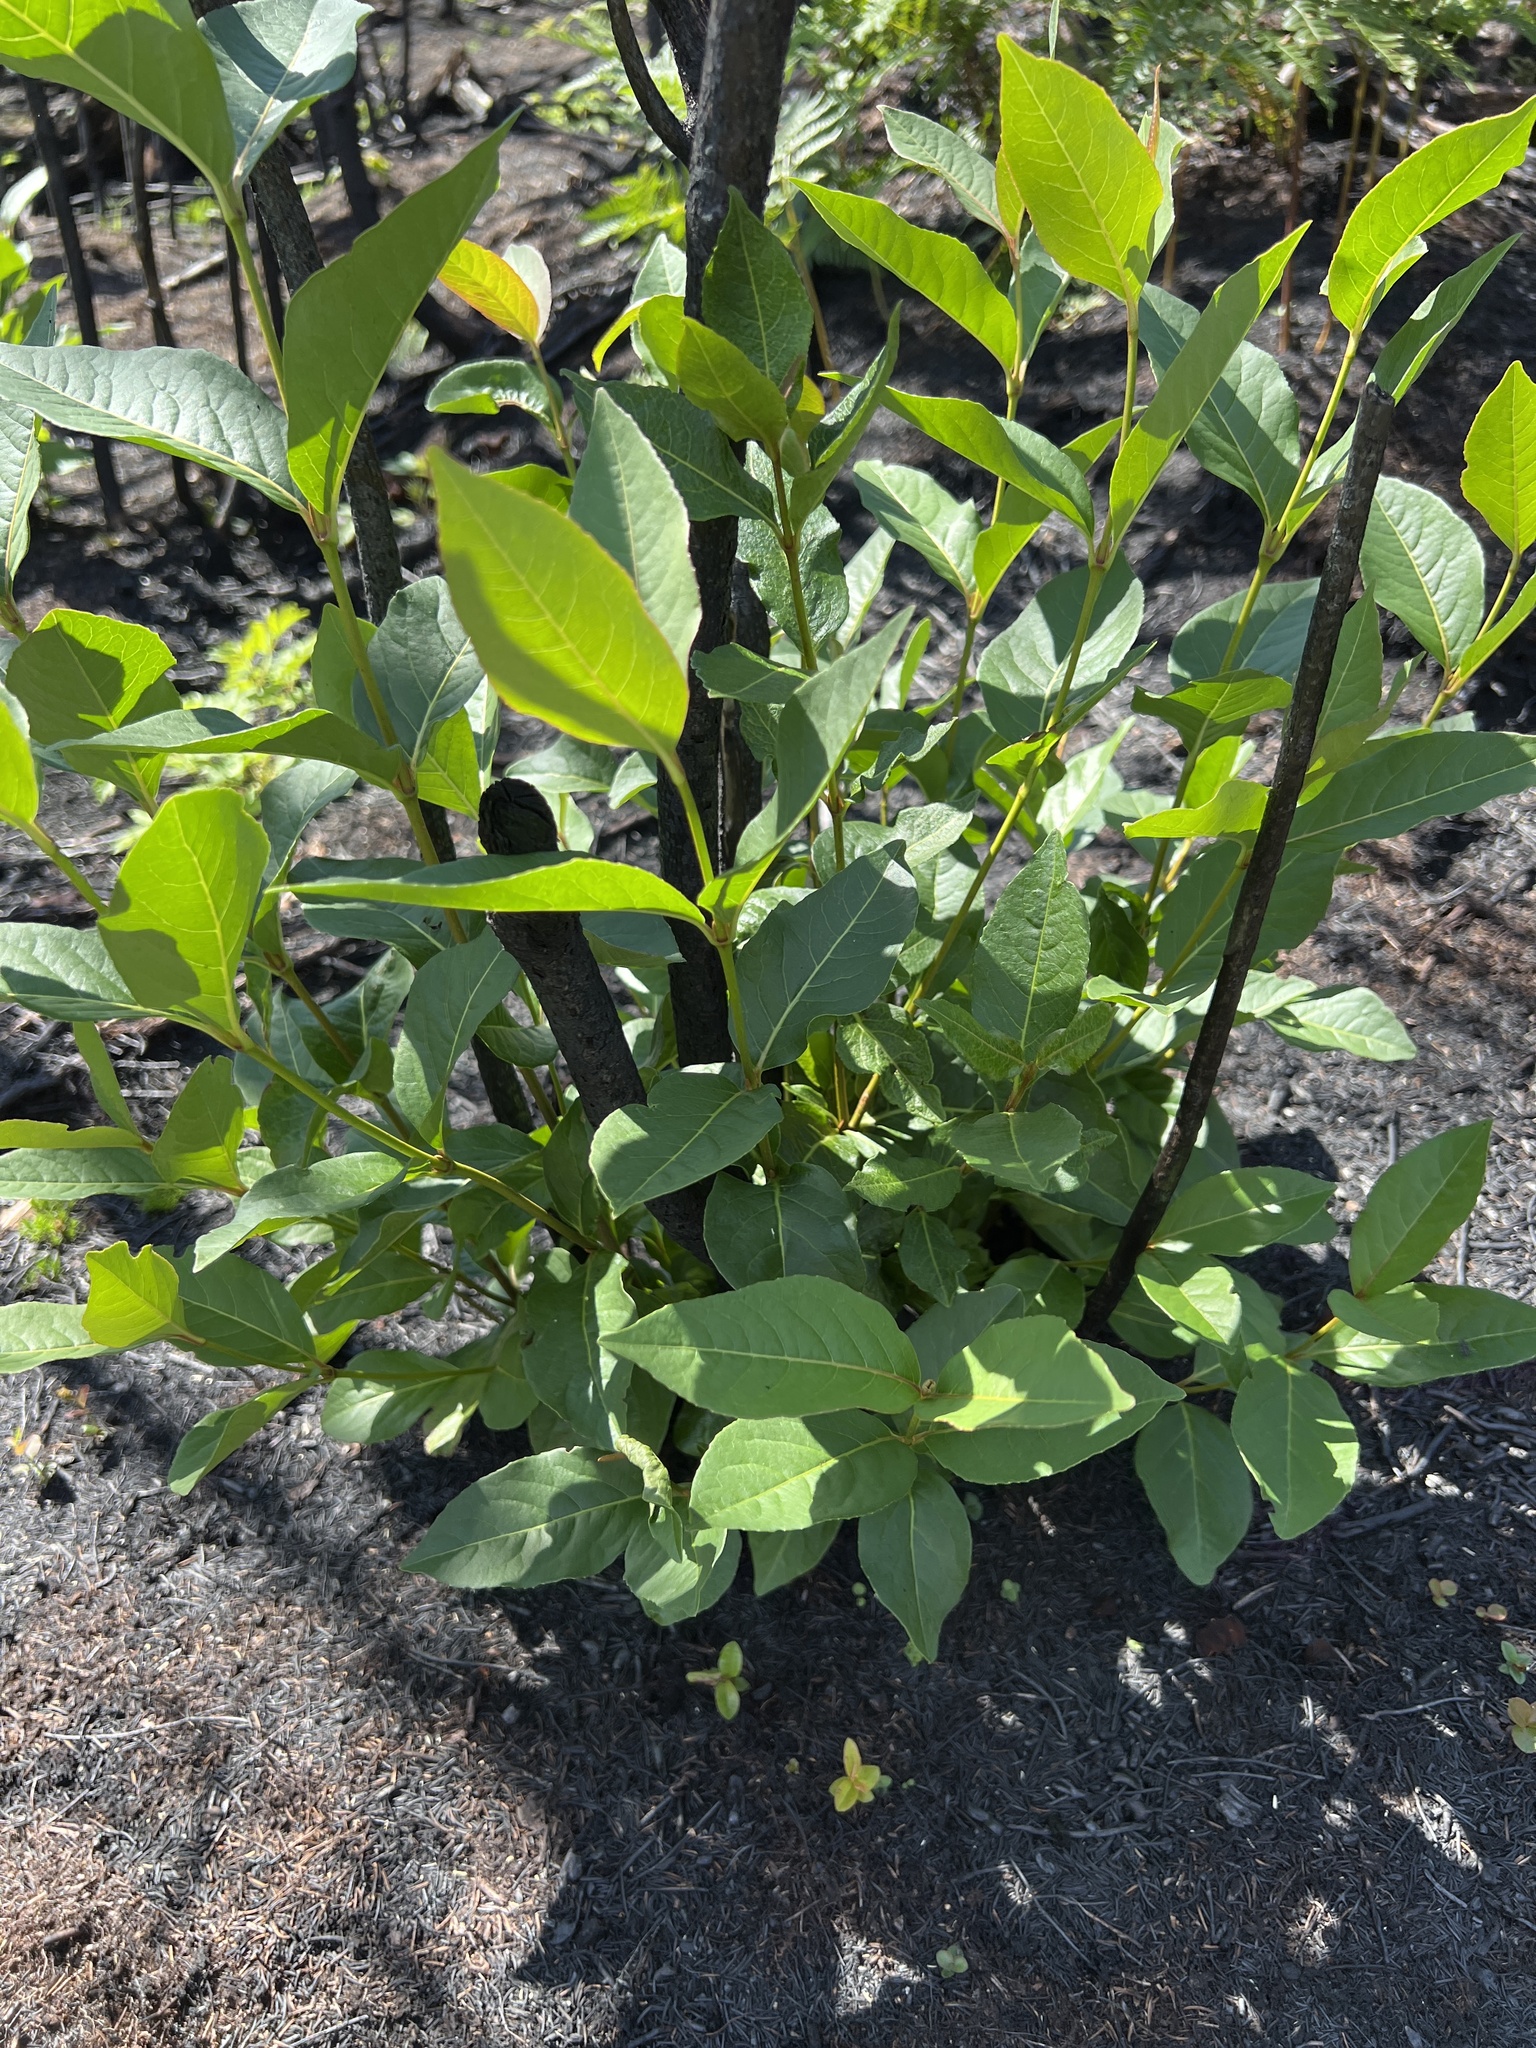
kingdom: Plantae
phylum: Tracheophyta
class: Magnoliopsida
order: Dipsacales
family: Viburnaceae
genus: Viburnum
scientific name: Viburnum cassinoides
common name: Swamp haw
